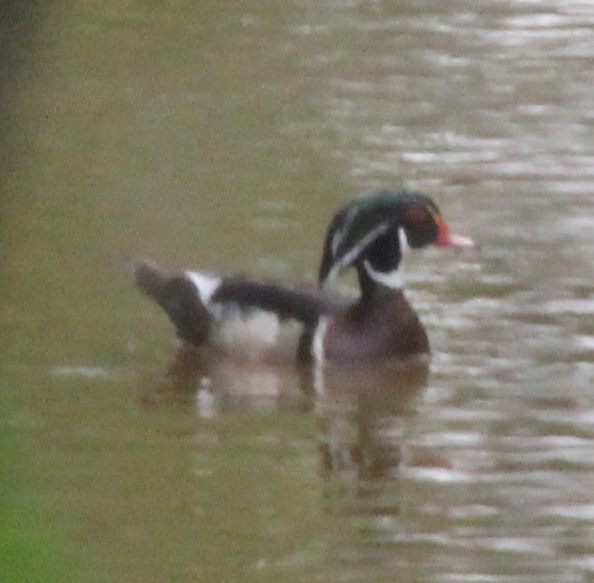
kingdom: Animalia
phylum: Chordata
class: Aves
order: Anseriformes
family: Anatidae
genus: Aix
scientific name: Aix sponsa
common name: Wood duck
